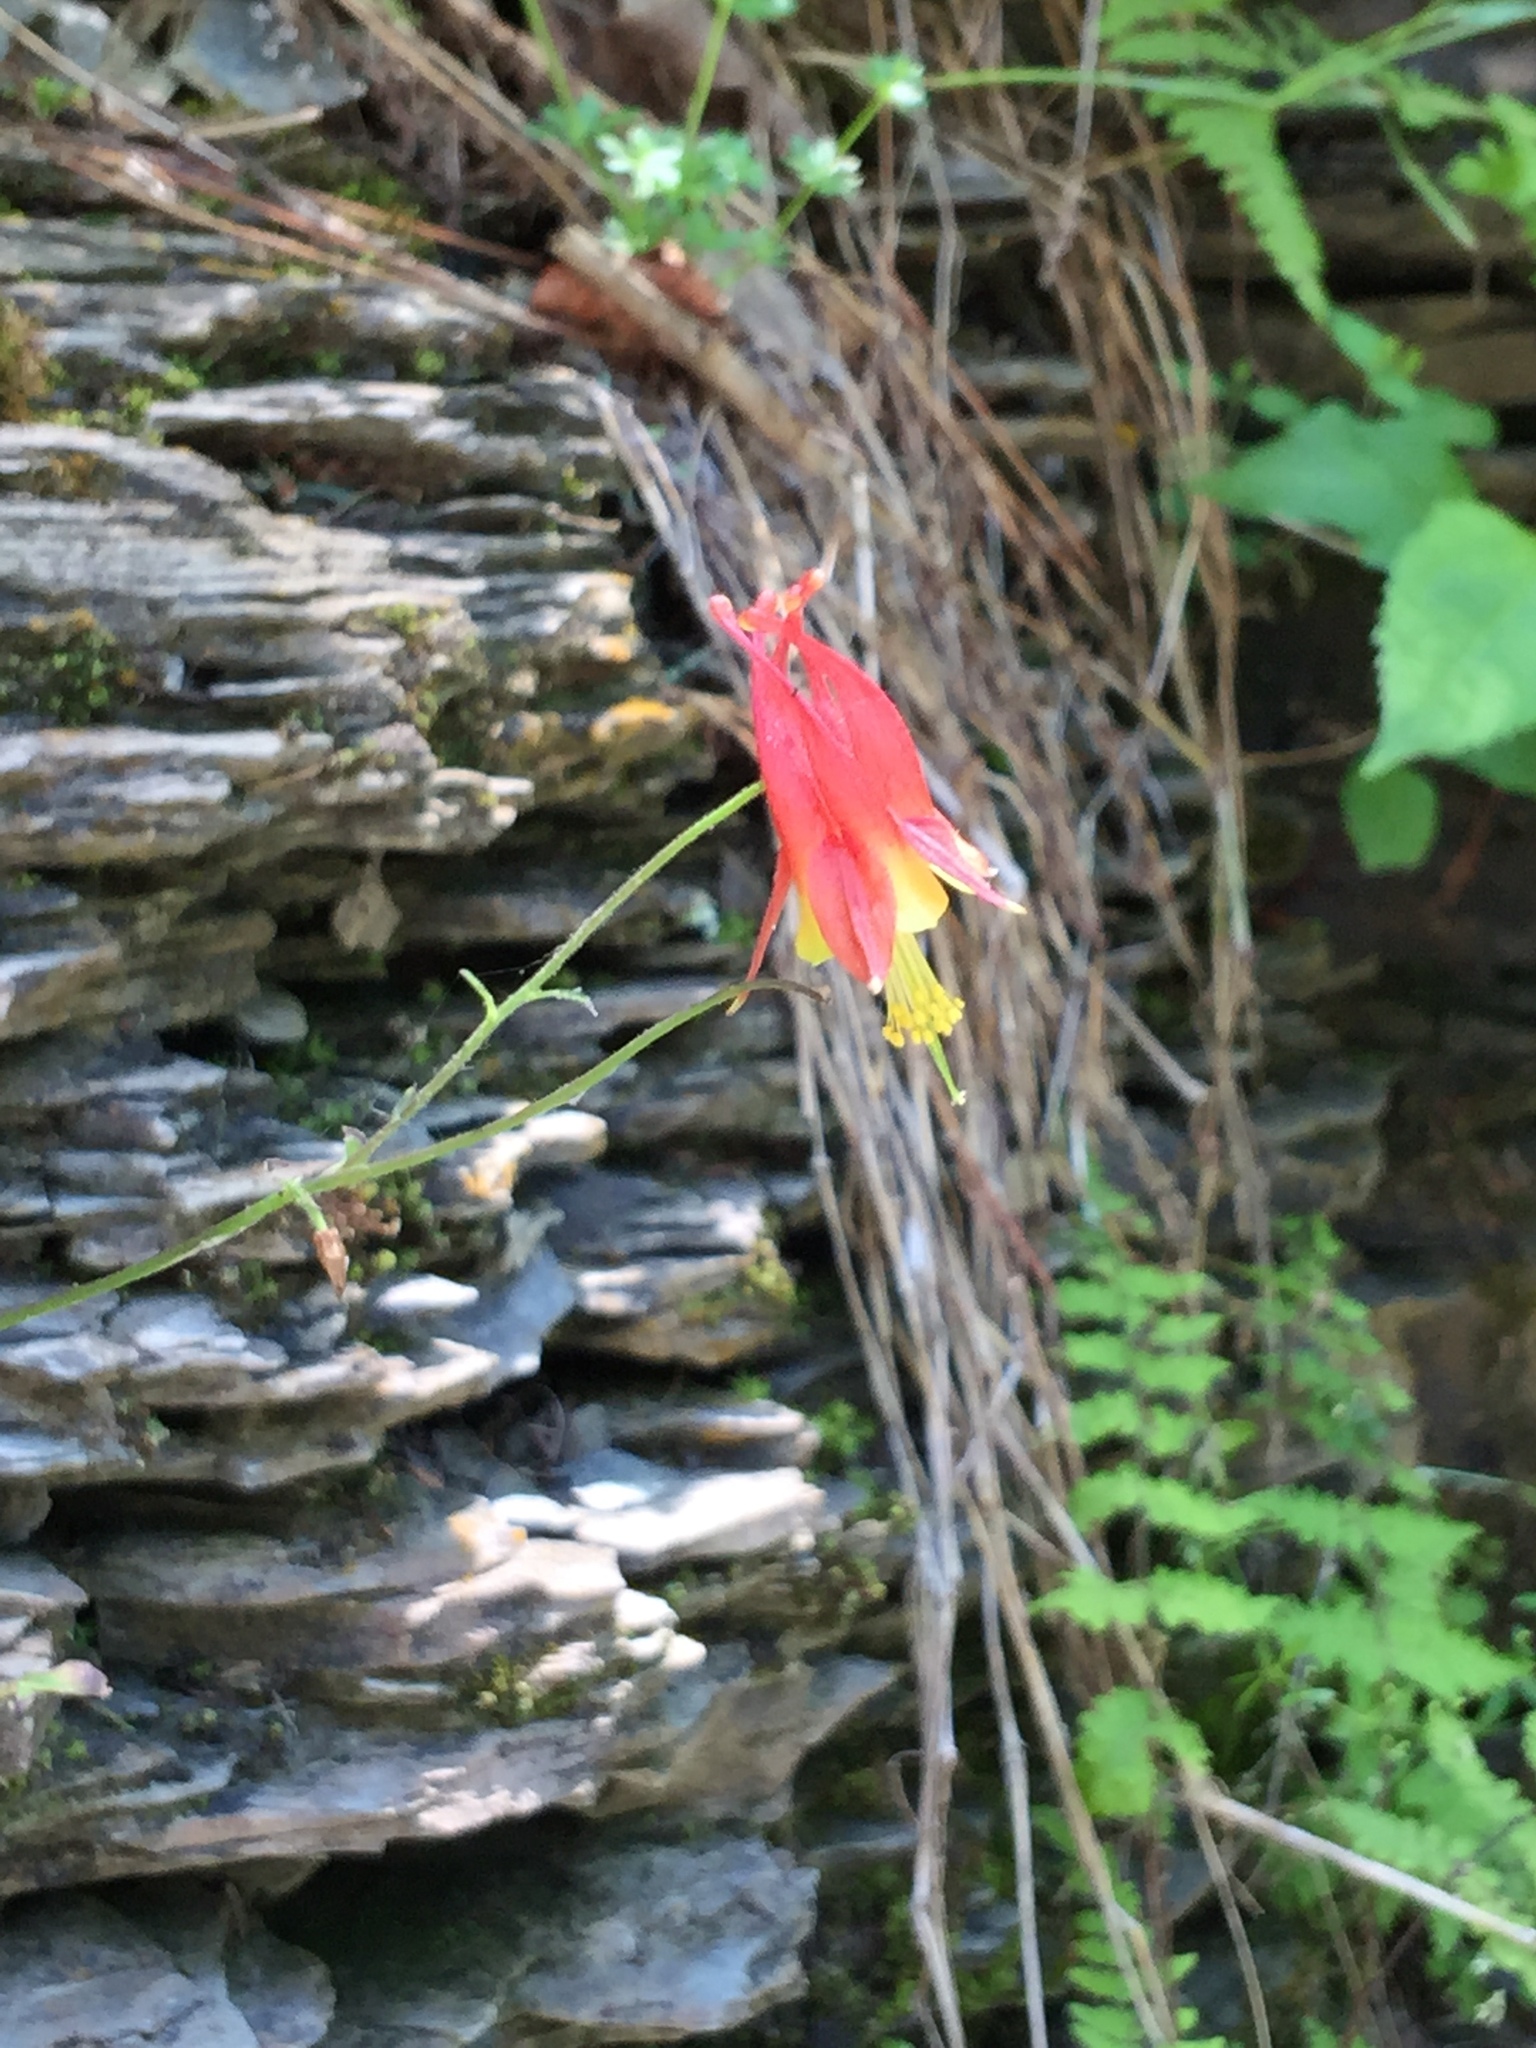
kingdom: Plantae
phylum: Tracheophyta
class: Magnoliopsida
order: Ranunculales
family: Ranunculaceae
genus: Aquilegia
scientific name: Aquilegia canadensis
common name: American columbine
